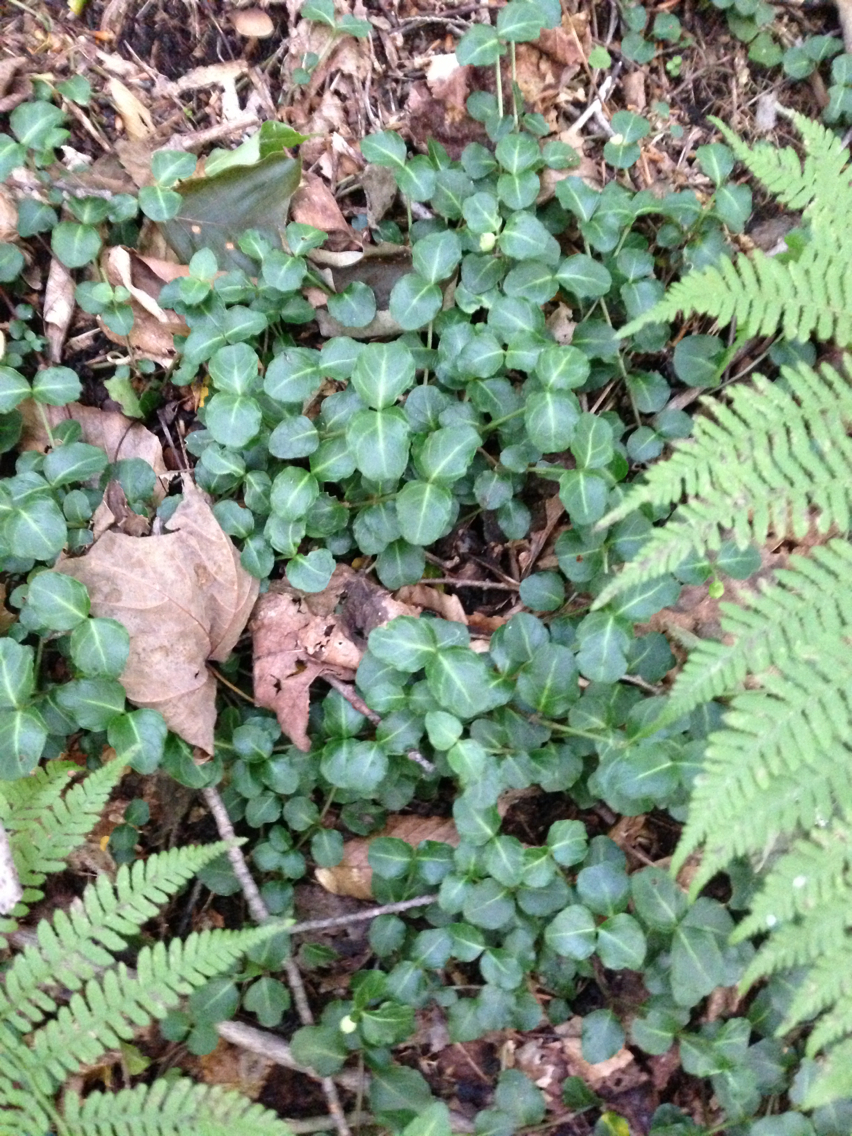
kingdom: Plantae
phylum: Tracheophyta
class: Magnoliopsida
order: Gentianales
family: Rubiaceae
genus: Mitchella
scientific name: Mitchella repens
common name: Partridge-berry
